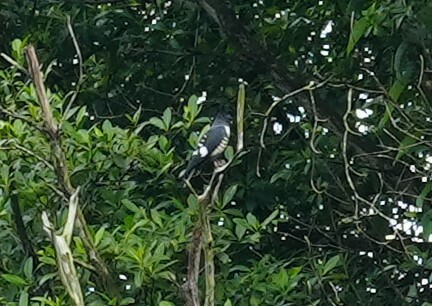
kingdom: Animalia
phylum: Chordata
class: Aves
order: Accipitriformes
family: Accipitridae
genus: Aviceda
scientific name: Aviceda leuphotes
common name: Black baza
